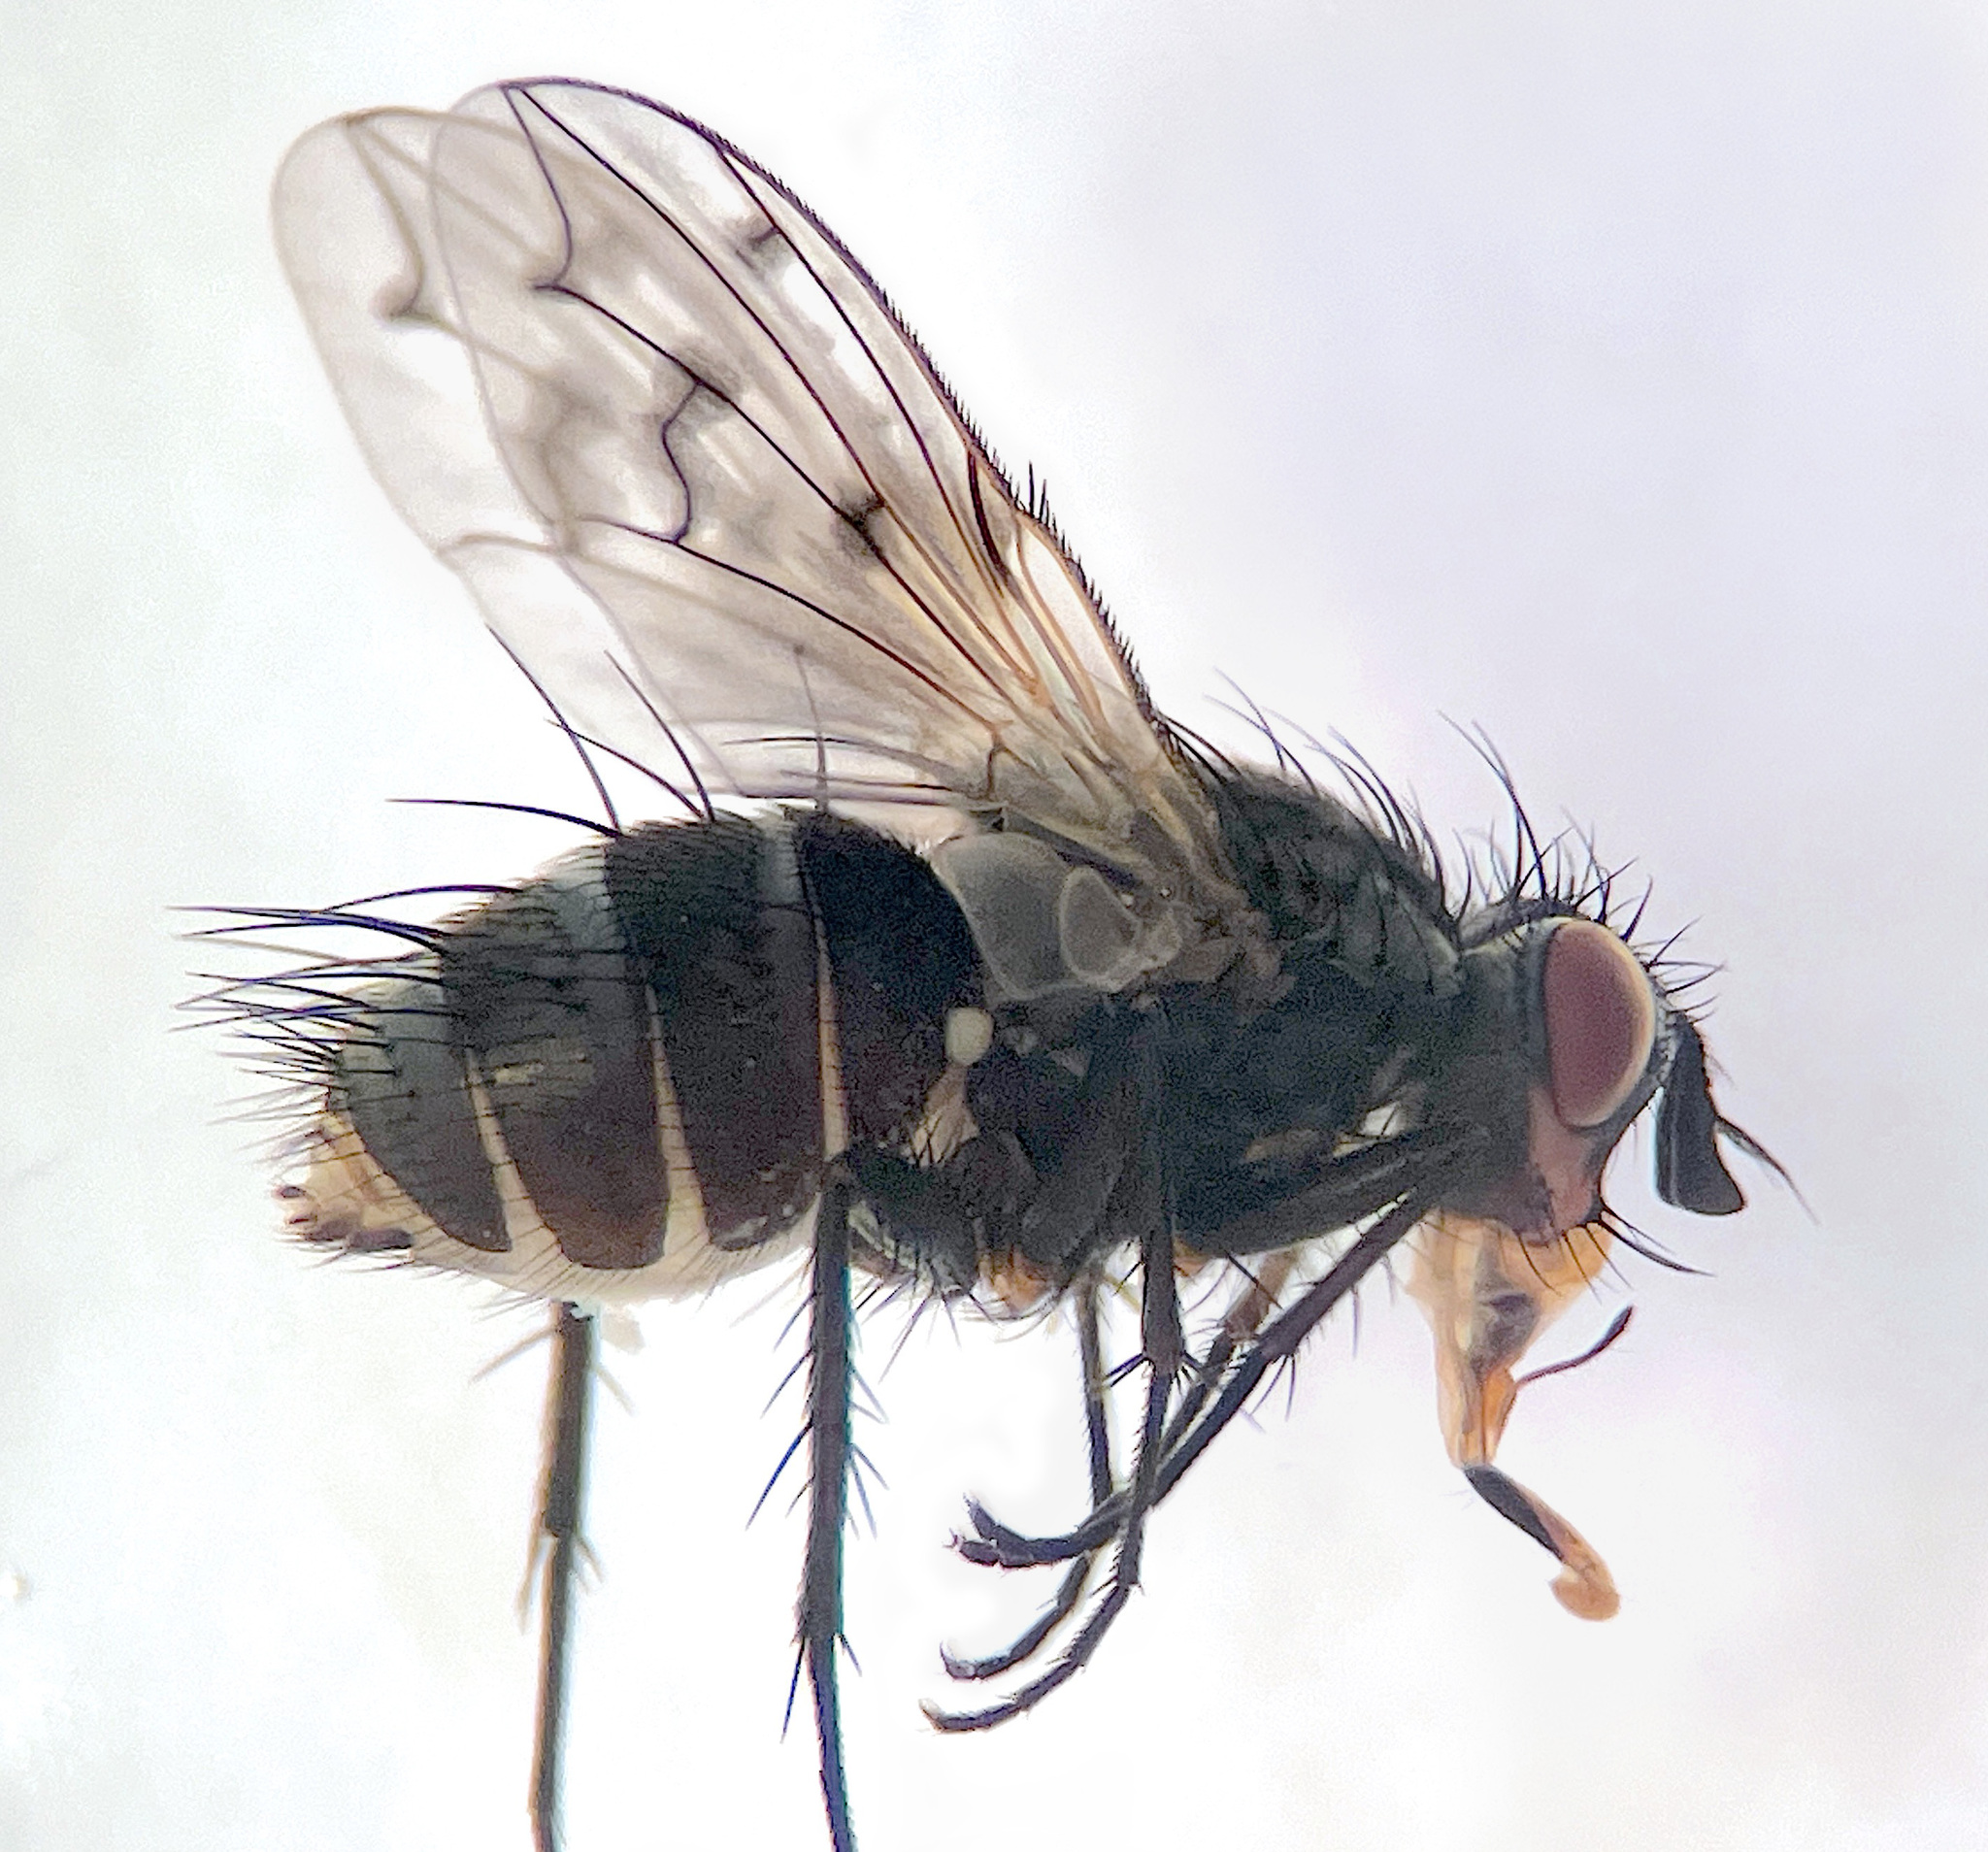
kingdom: Animalia
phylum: Arthropoda
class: Insecta
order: Diptera
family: Tachinidae
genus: Heteria
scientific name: Heteria appendiculata
